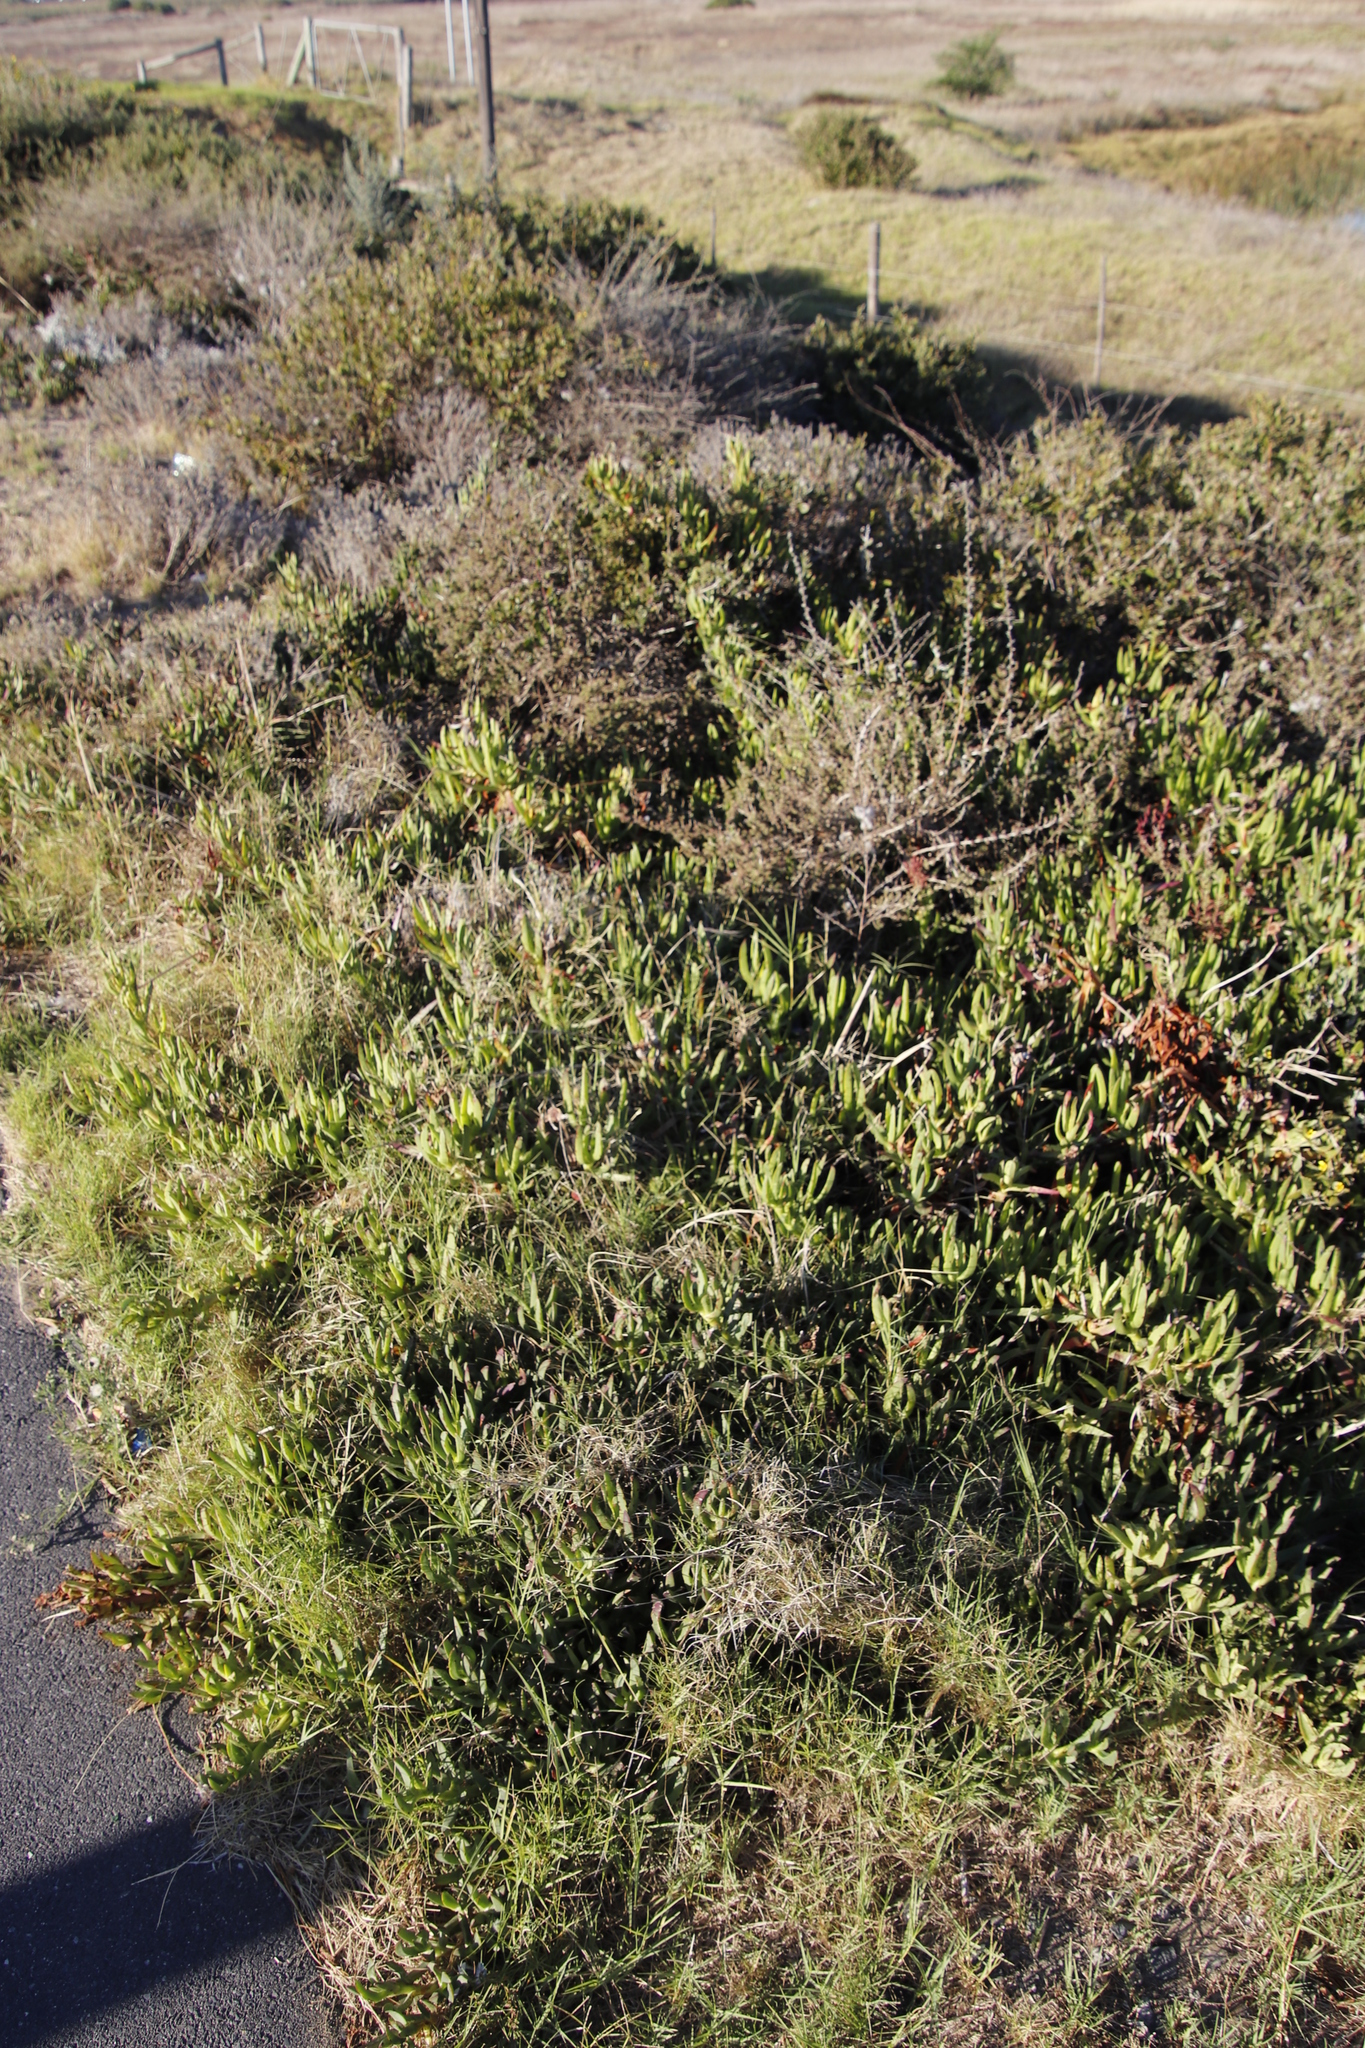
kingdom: Plantae
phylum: Tracheophyta
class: Magnoliopsida
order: Caryophyllales
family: Aizoaceae
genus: Carpobrotus
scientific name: Carpobrotus edulis
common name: Hottentot-fig
